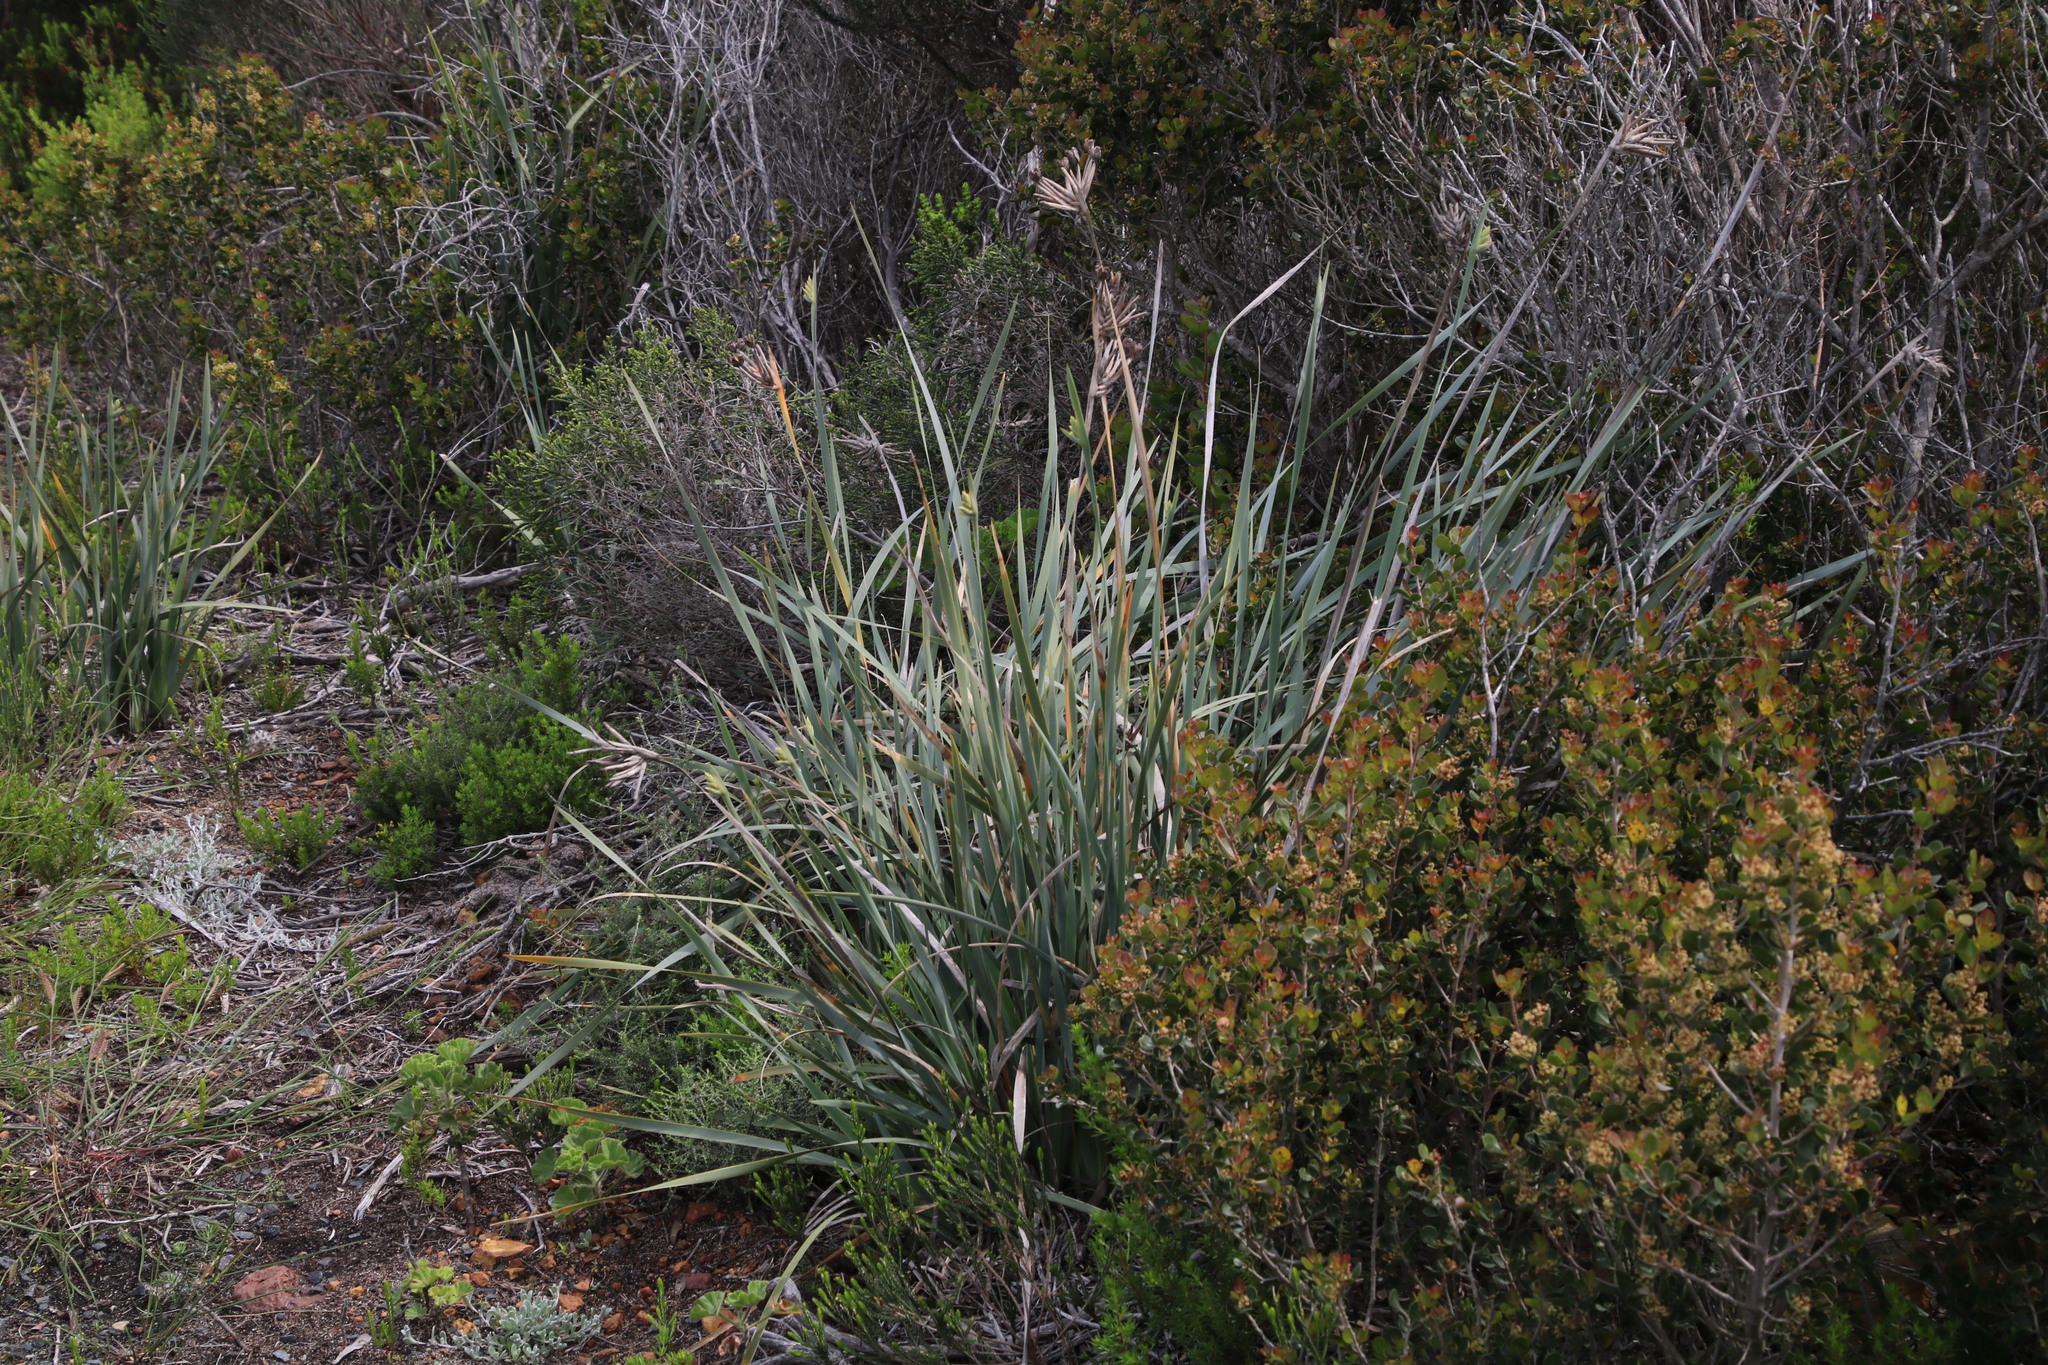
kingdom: Plantae
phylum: Tracheophyta
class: Liliopsida
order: Asparagales
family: Iridaceae
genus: Bobartia
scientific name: Bobartia gladiata
